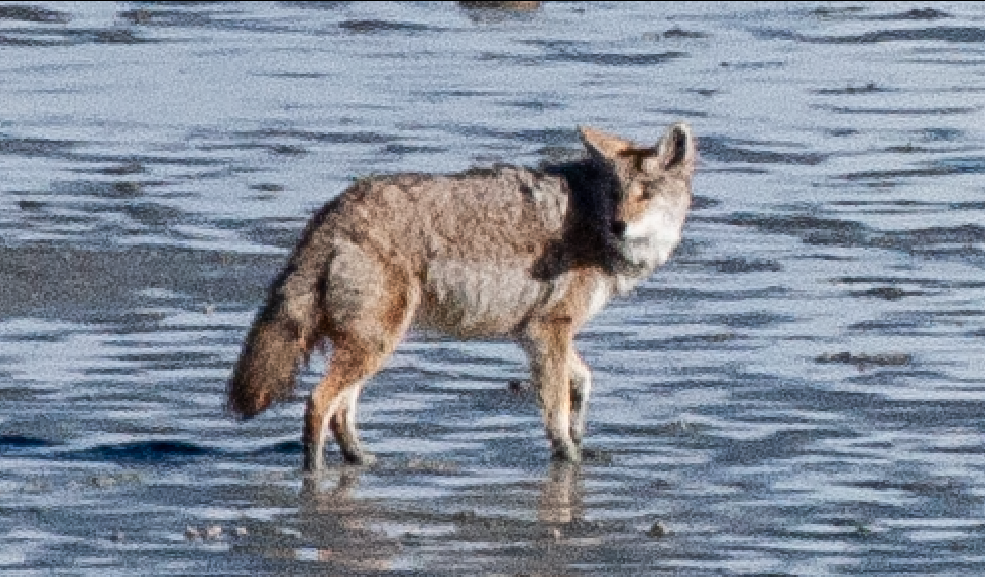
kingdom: Animalia
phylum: Chordata
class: Mammalia
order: Carnivora
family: Canidae
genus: Canis
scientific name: Canis latrans
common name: Coyote
